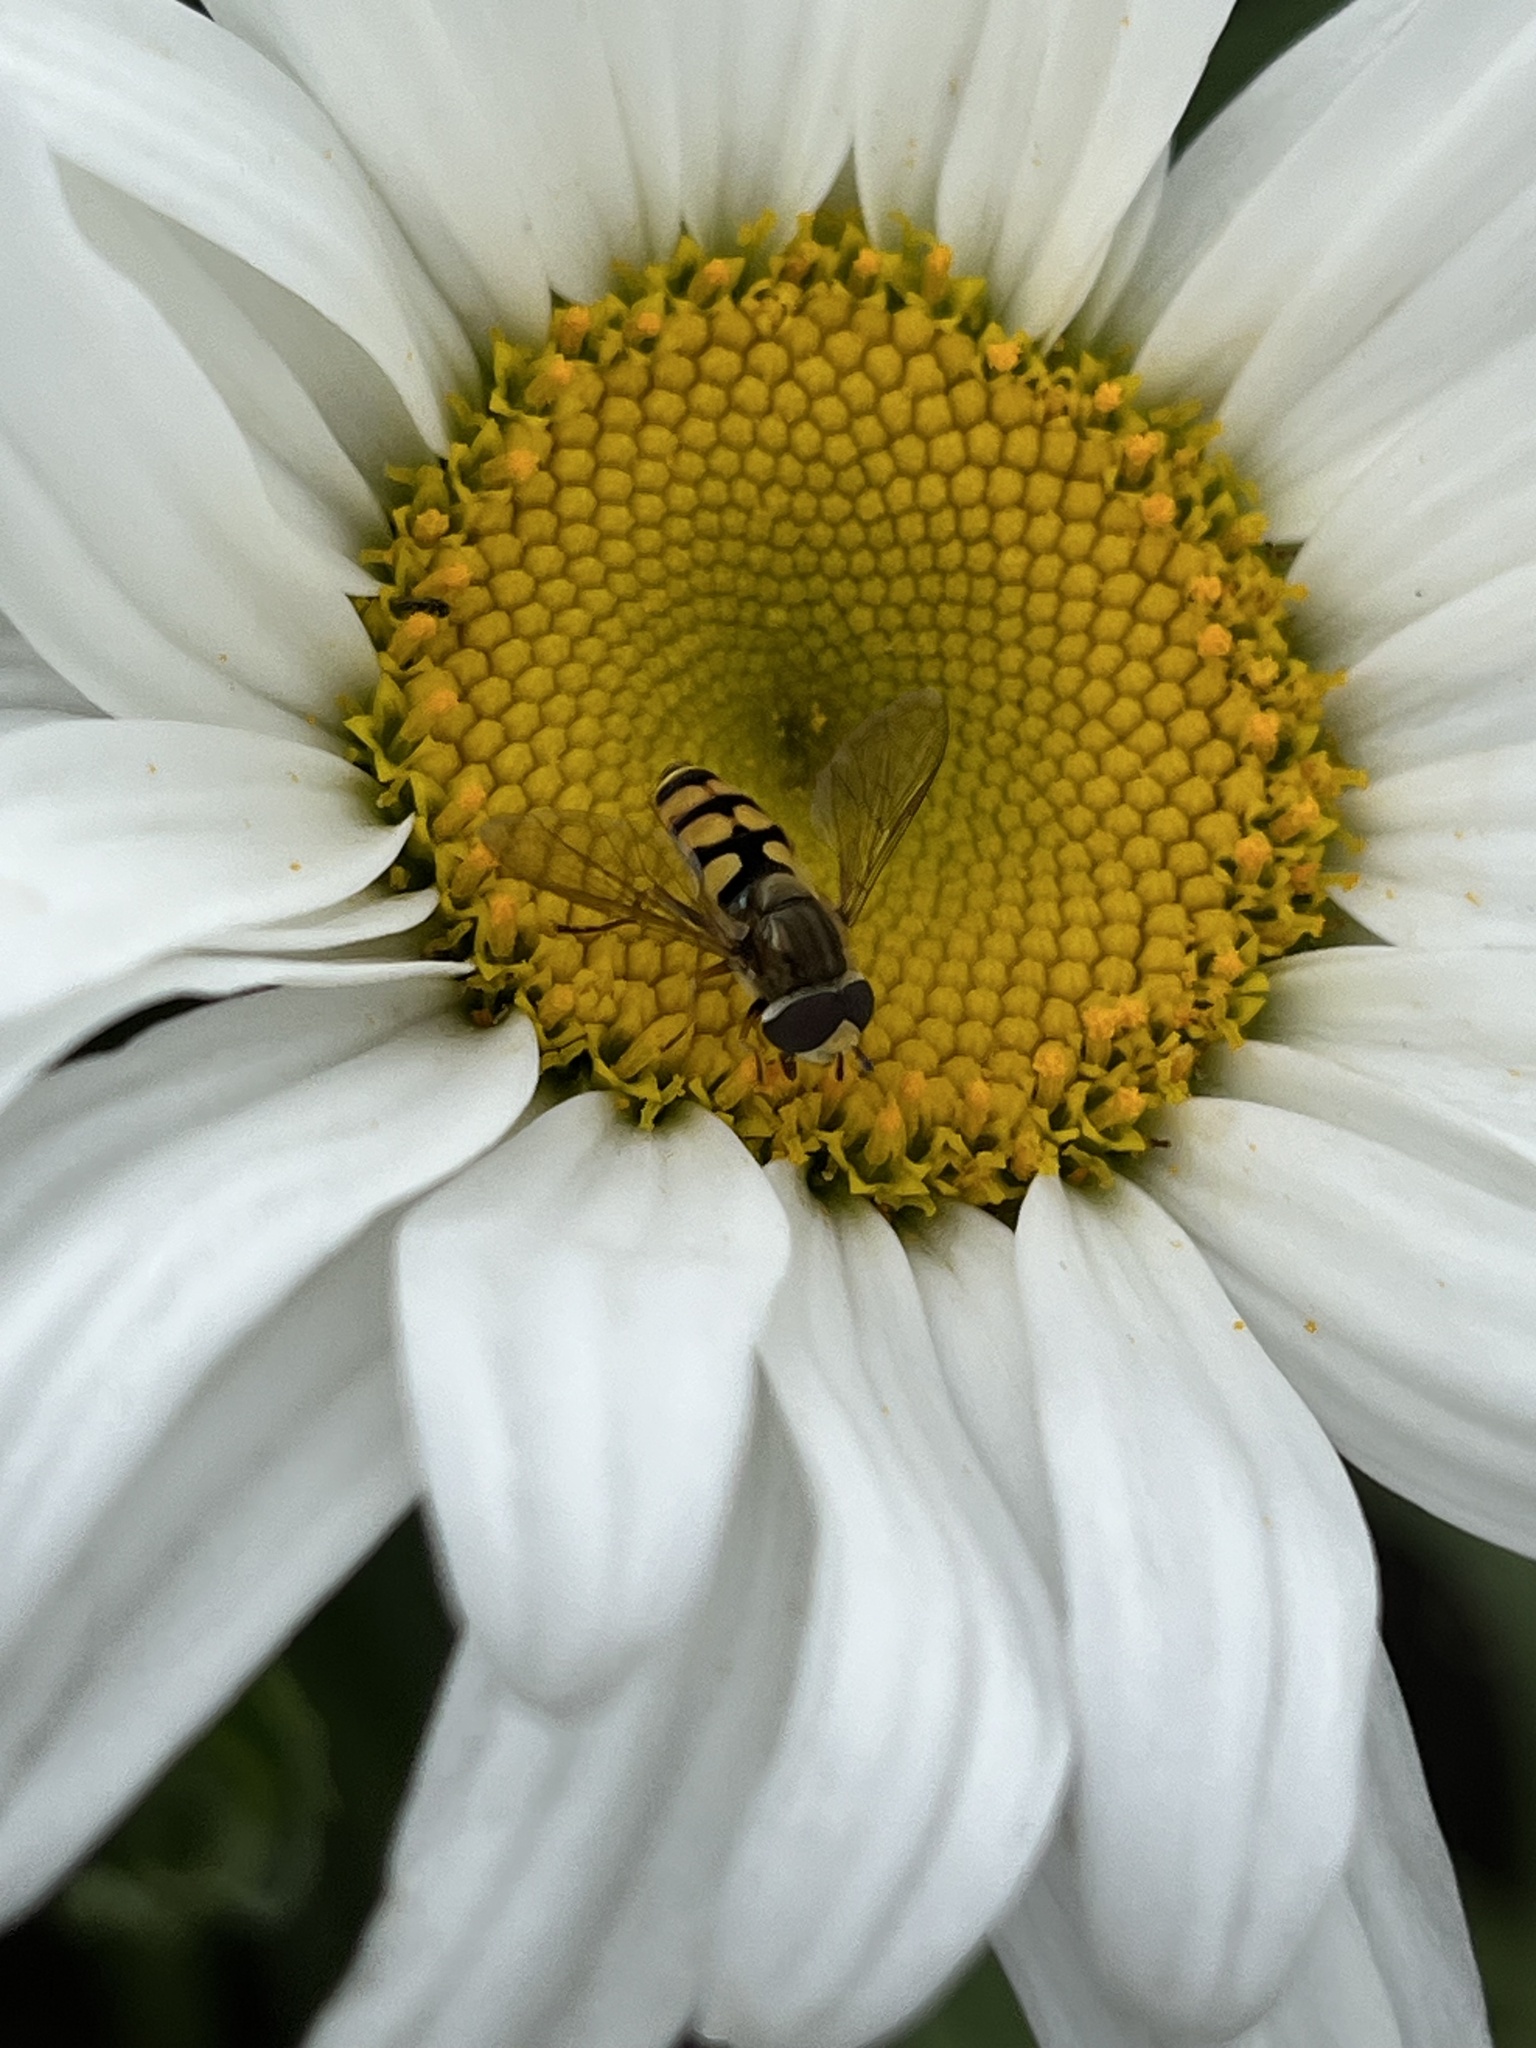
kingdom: Animalia
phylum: Arthropoda
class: Insecta
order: Diptera
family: Syrphidae
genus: Eupeodes
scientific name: Eupeodes corollae
